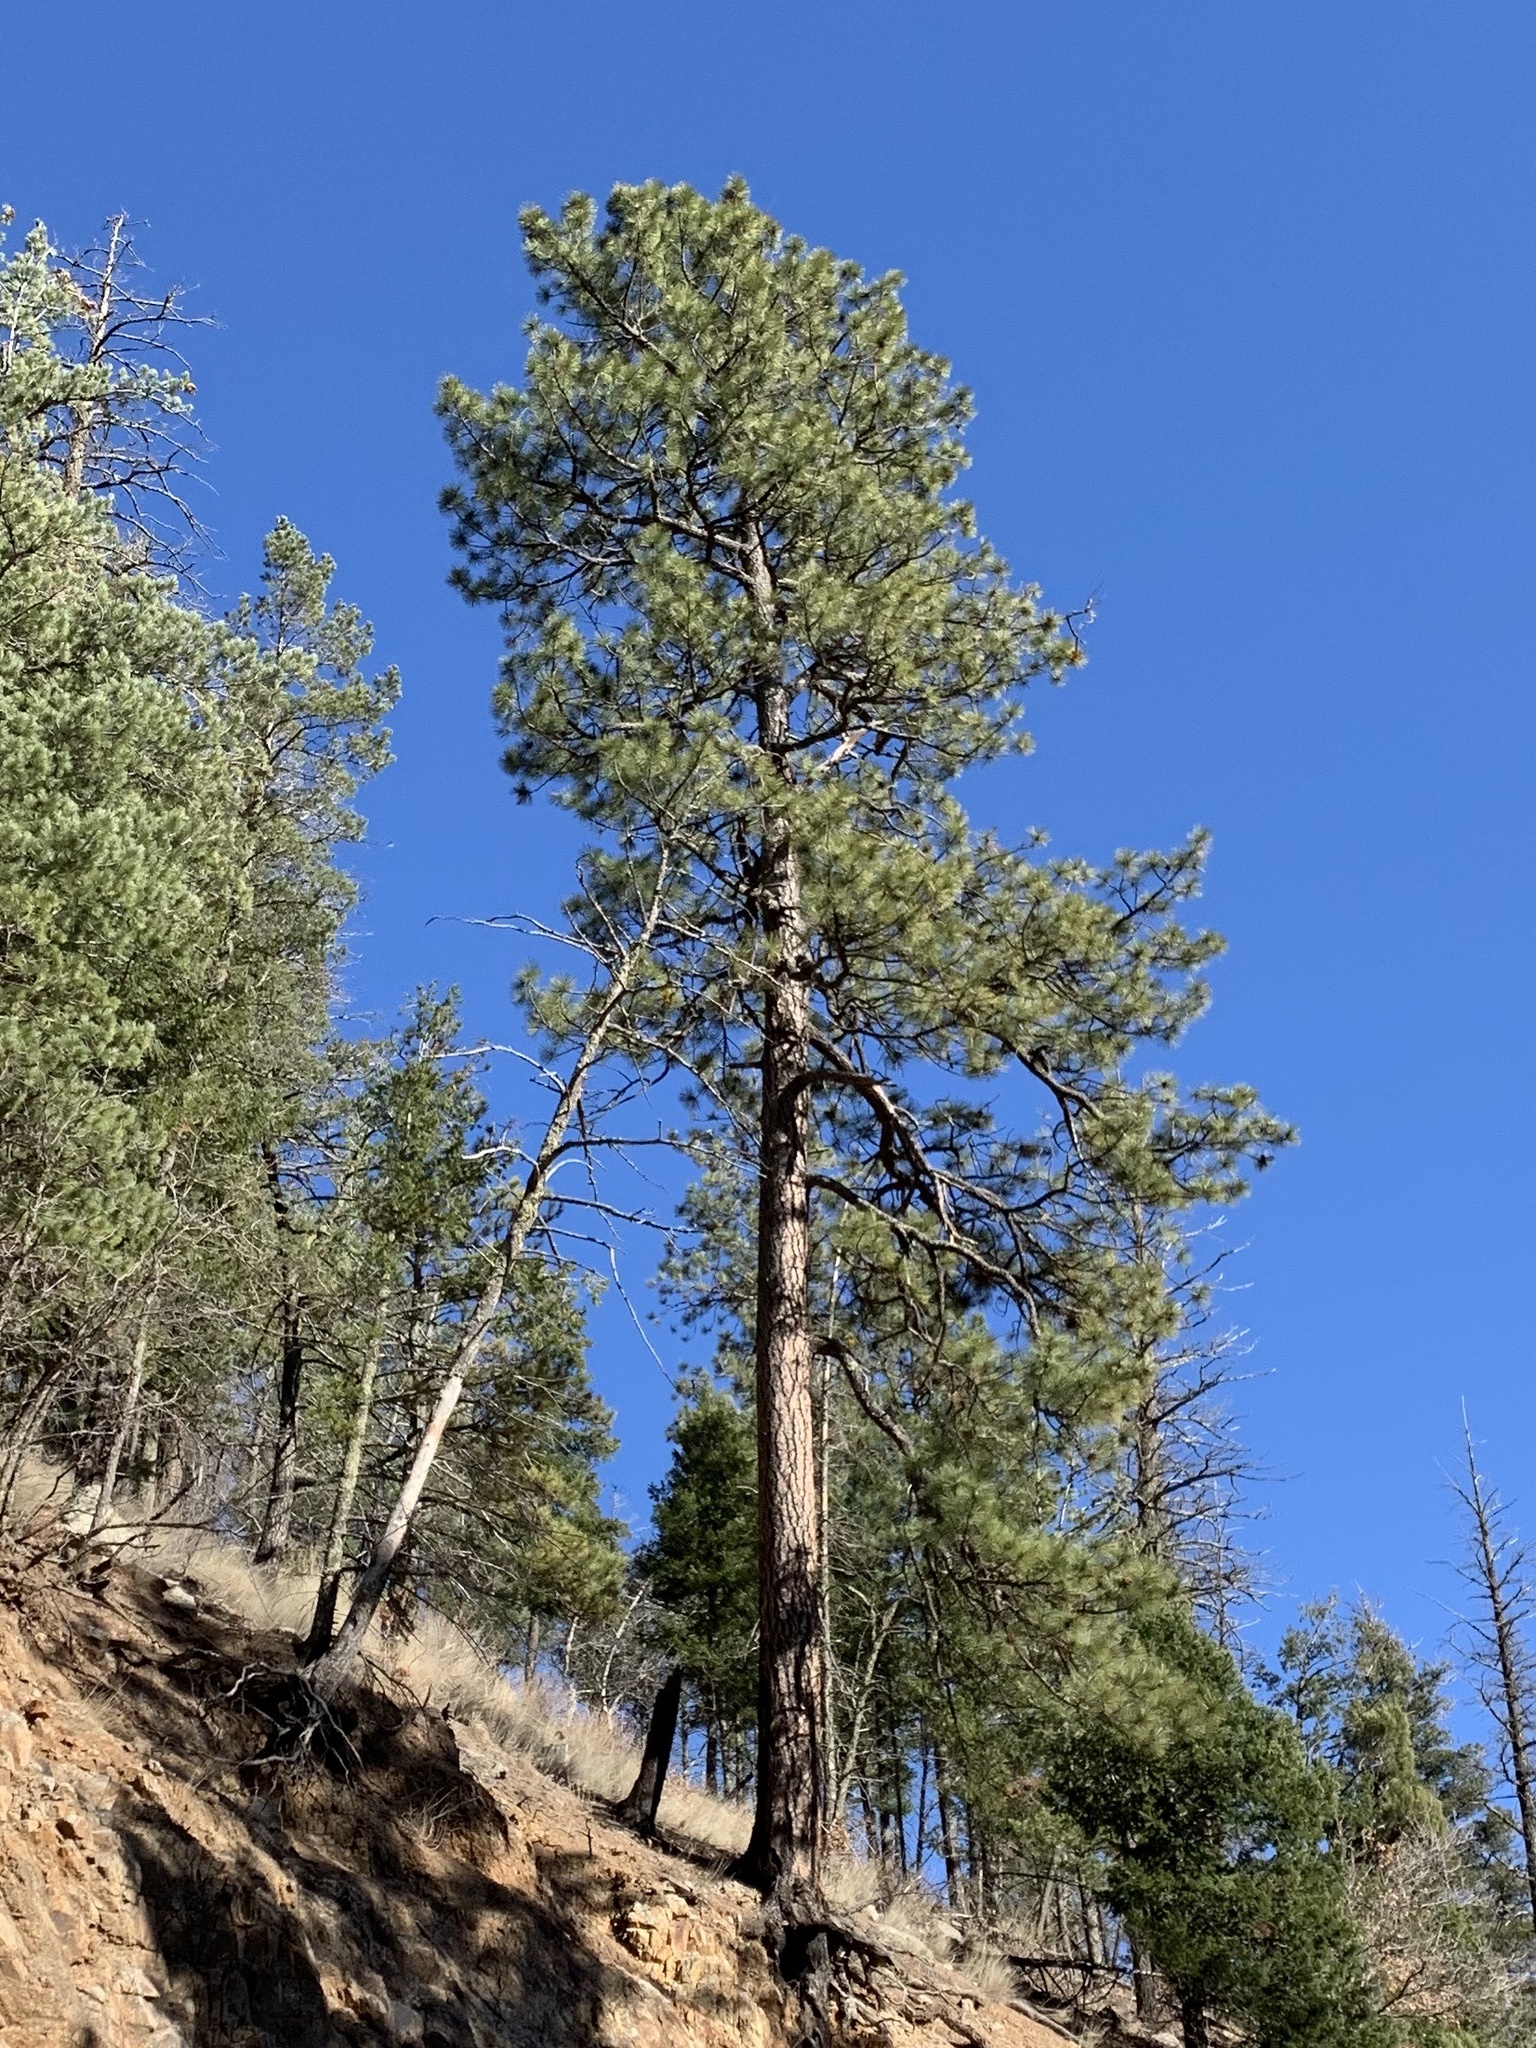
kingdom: Plantae
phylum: Tracheophyta
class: Pinopsida
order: Pinales
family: Pinaceae
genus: Pinus
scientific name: Pinus ponderosa
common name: Western yellow-pine
